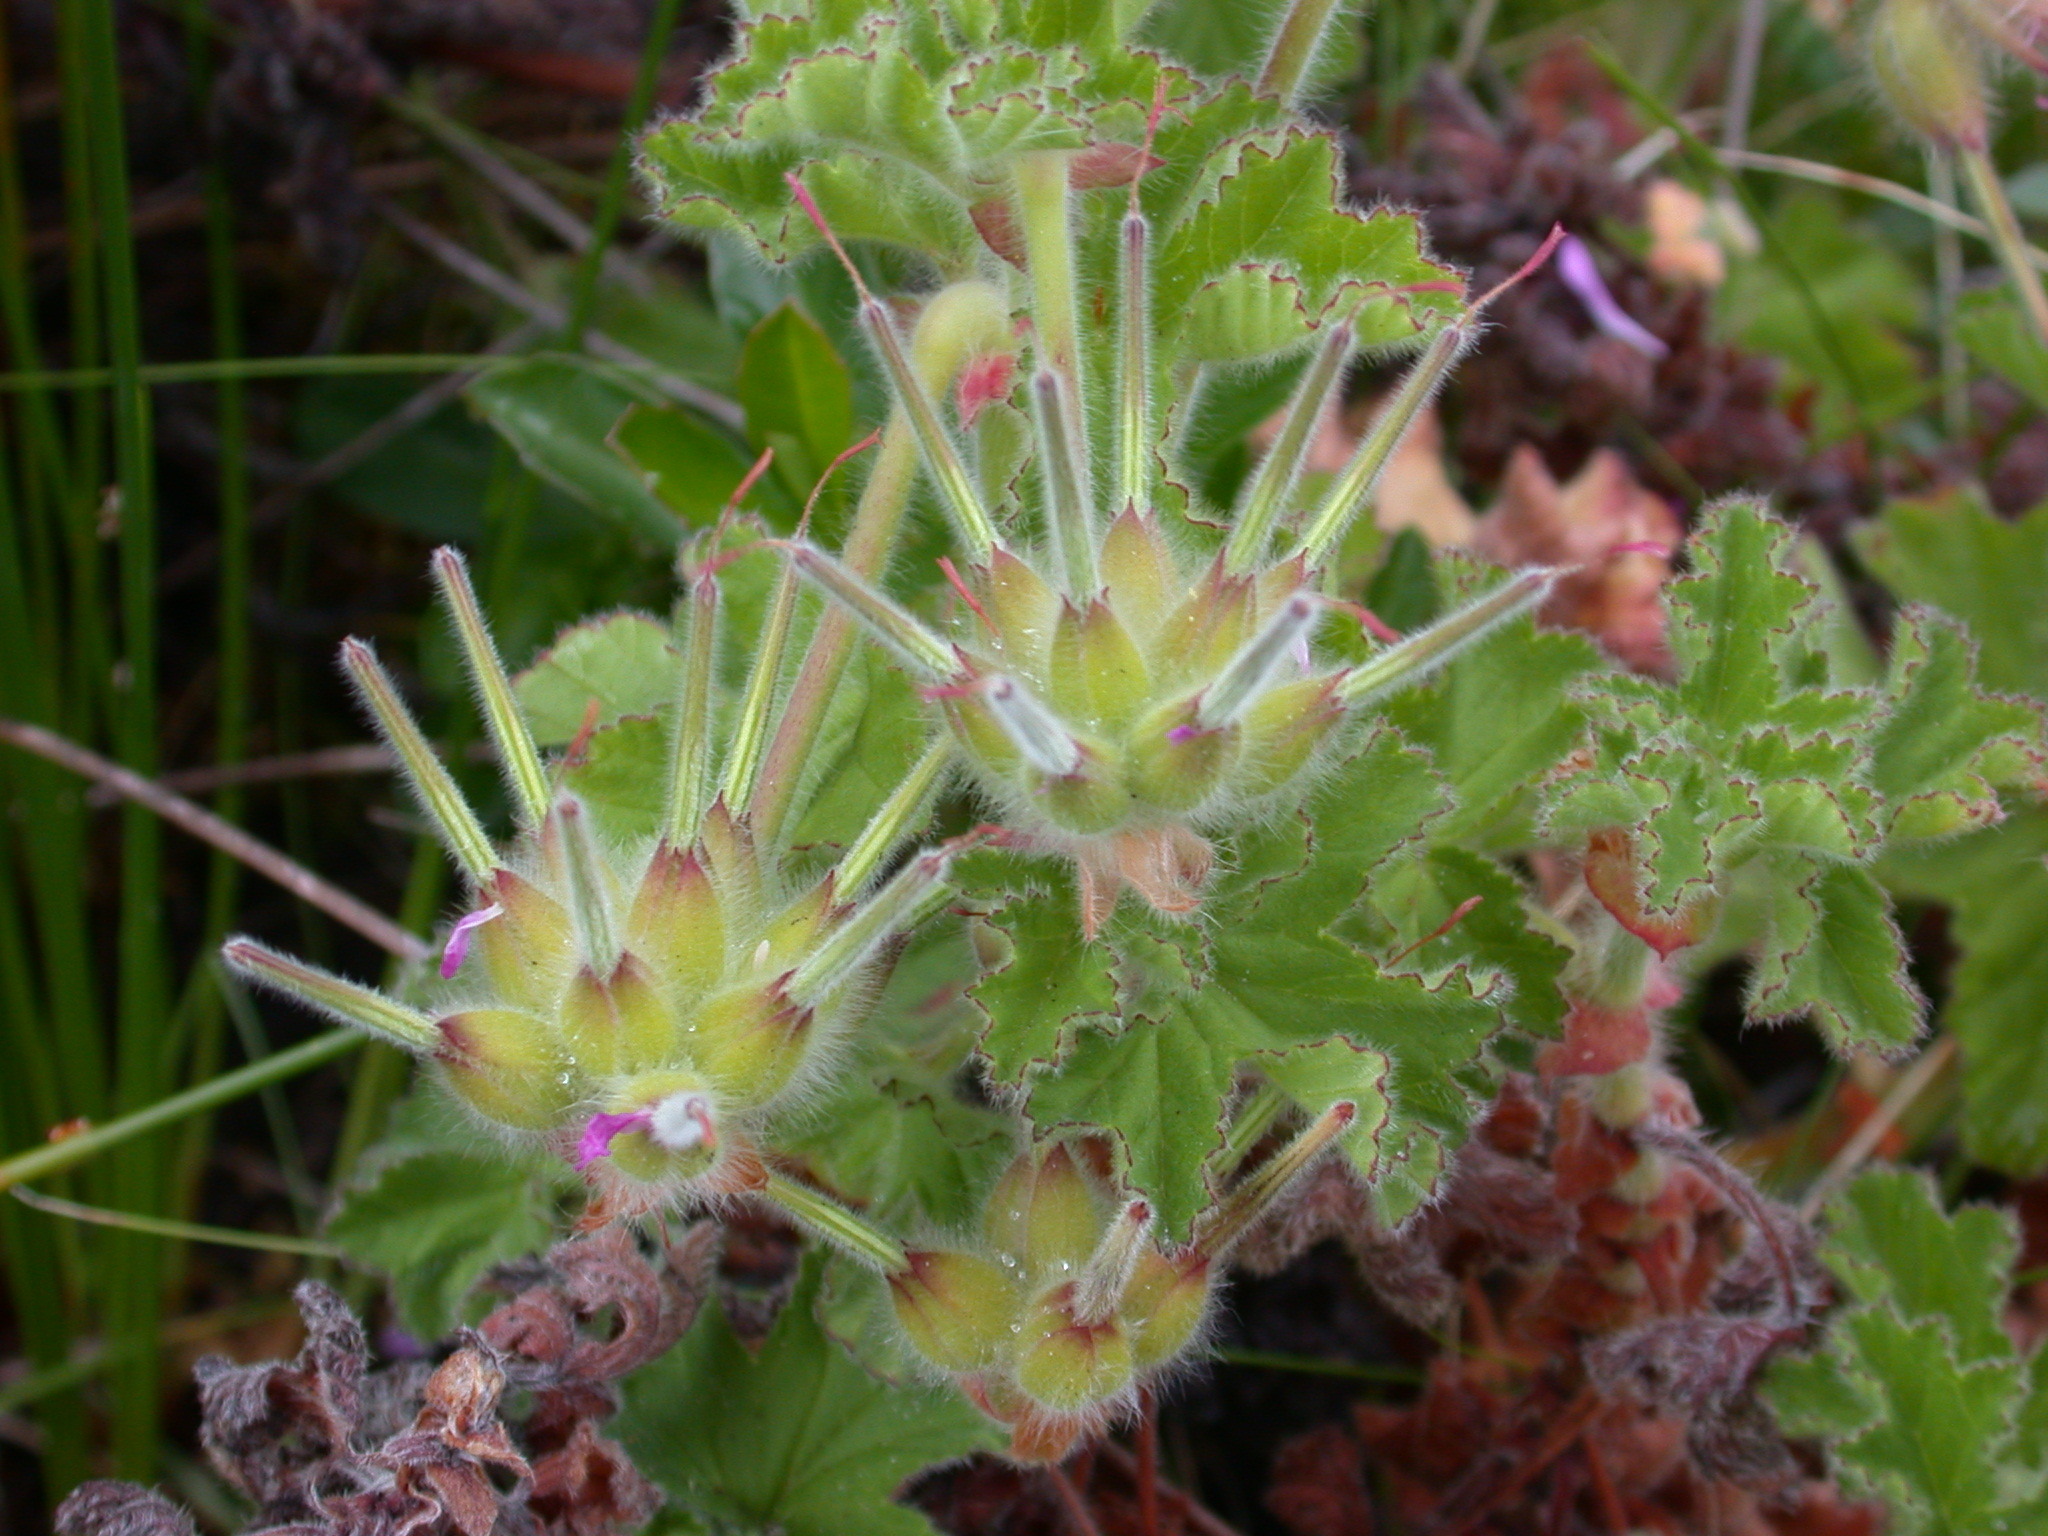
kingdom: Plantae
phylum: Tracheophyta
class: Magnoliopsida
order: Geraniales
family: Geraniaceae
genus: Pelargonium
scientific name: Pelargonium capitatum
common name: Rose scented geranium
